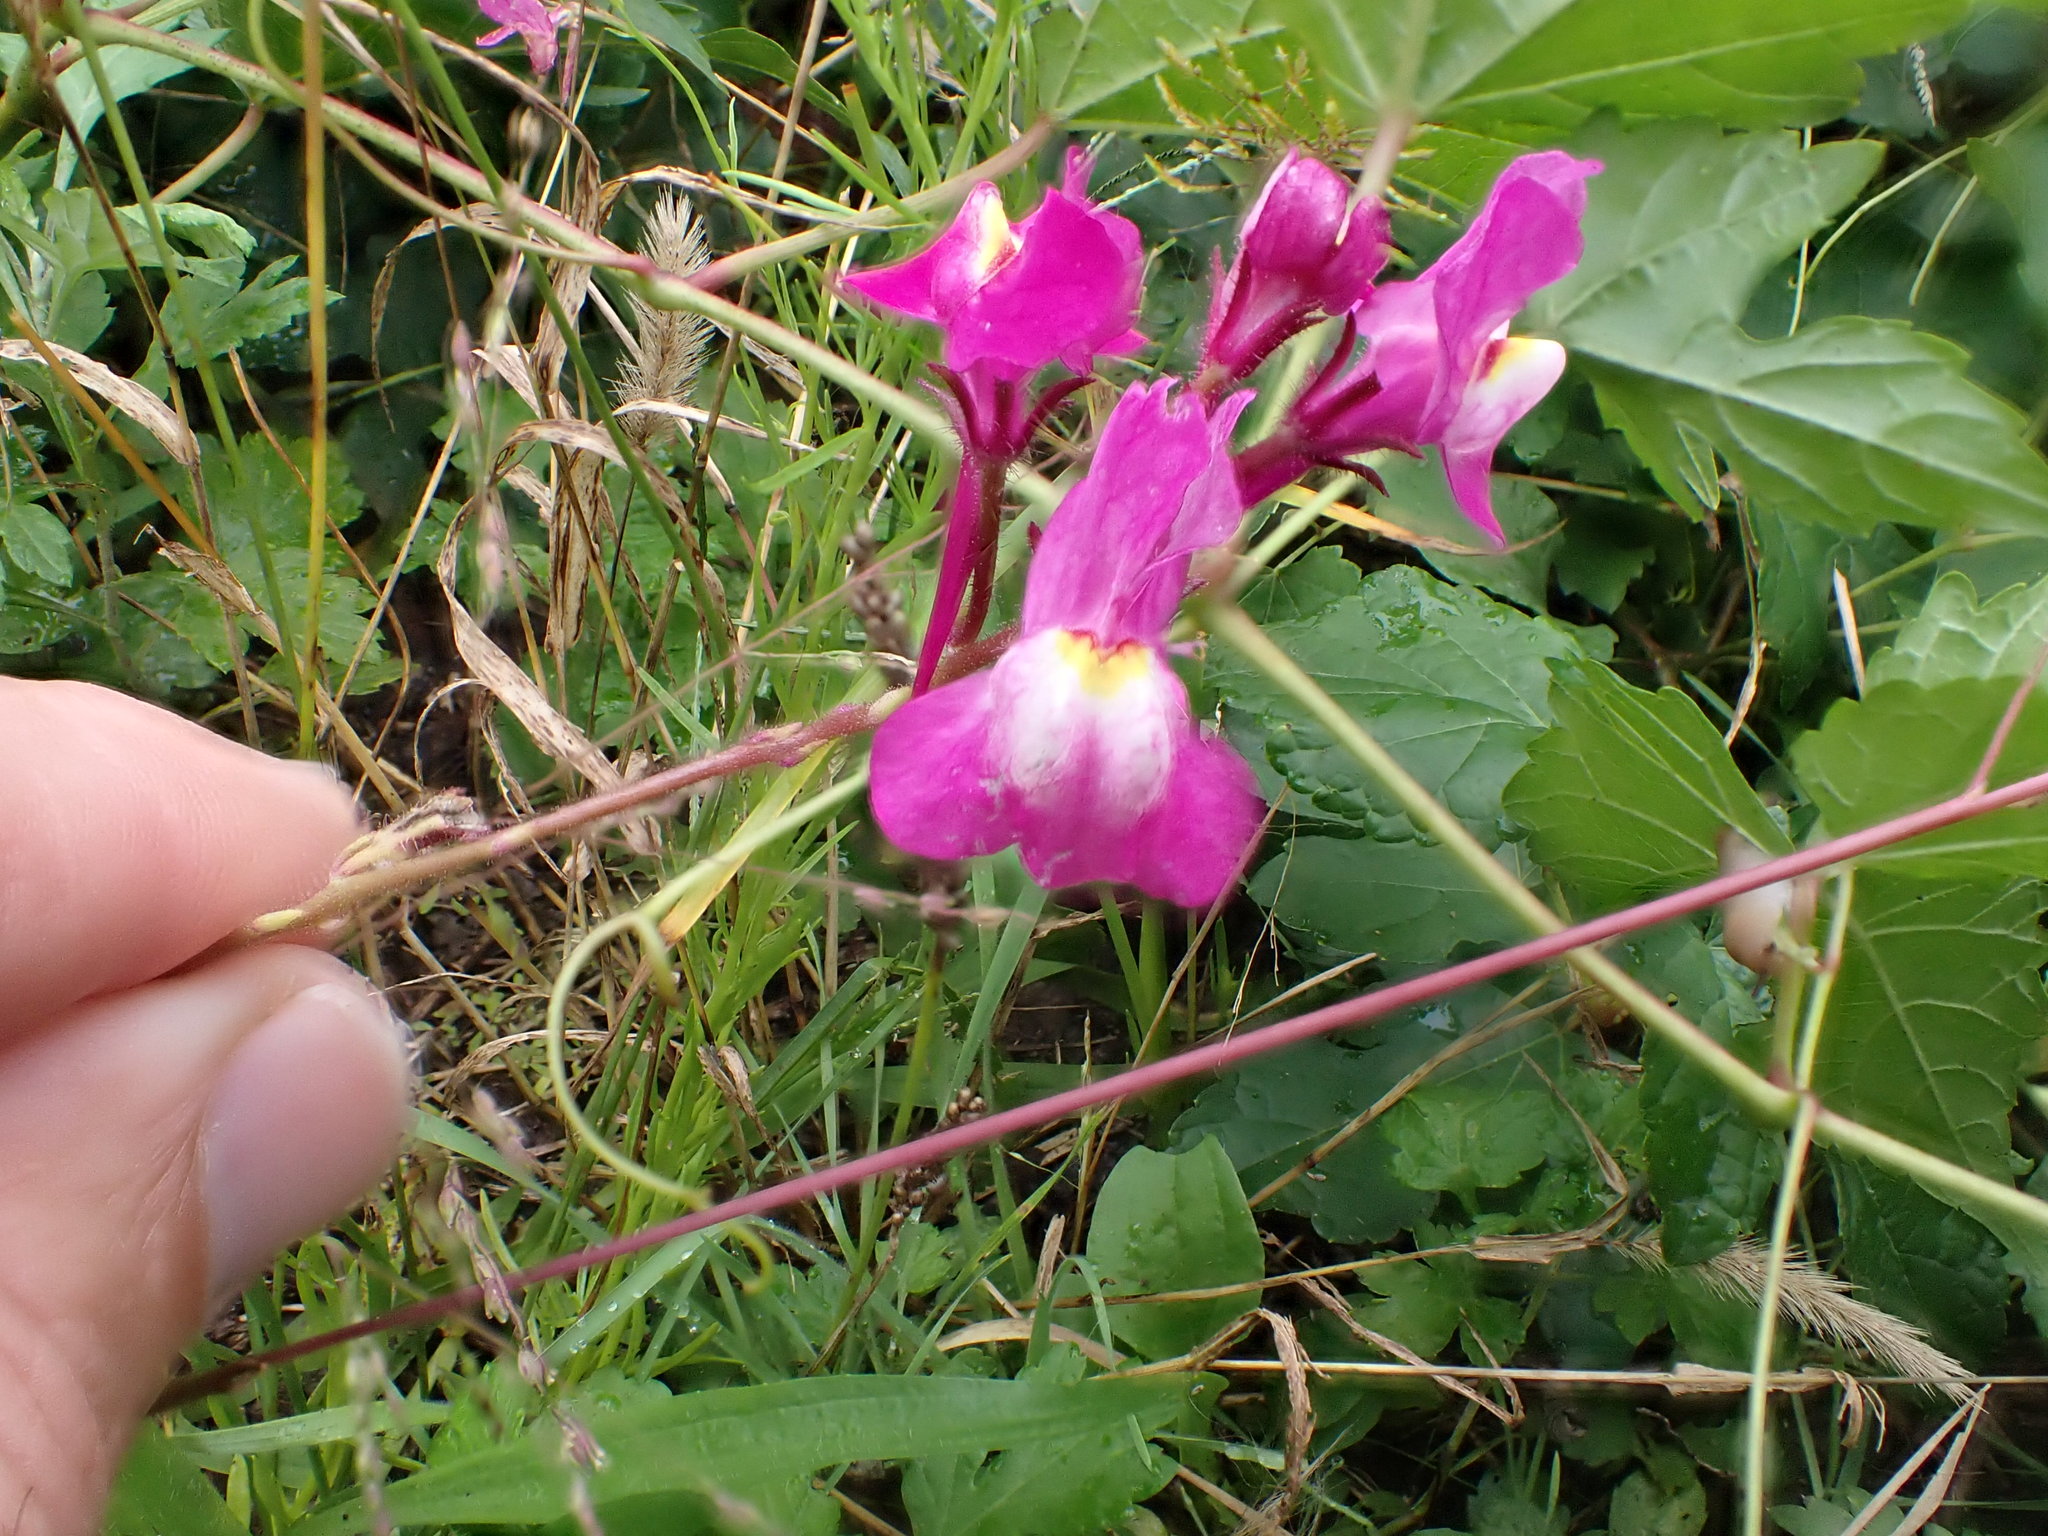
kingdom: Plantae
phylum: Tracheophyta
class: Magnoliopsida
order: Lamiales
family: Plantaginaceae
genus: Linaria
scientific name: Linaria maroccana
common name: Moroccan toadflax
